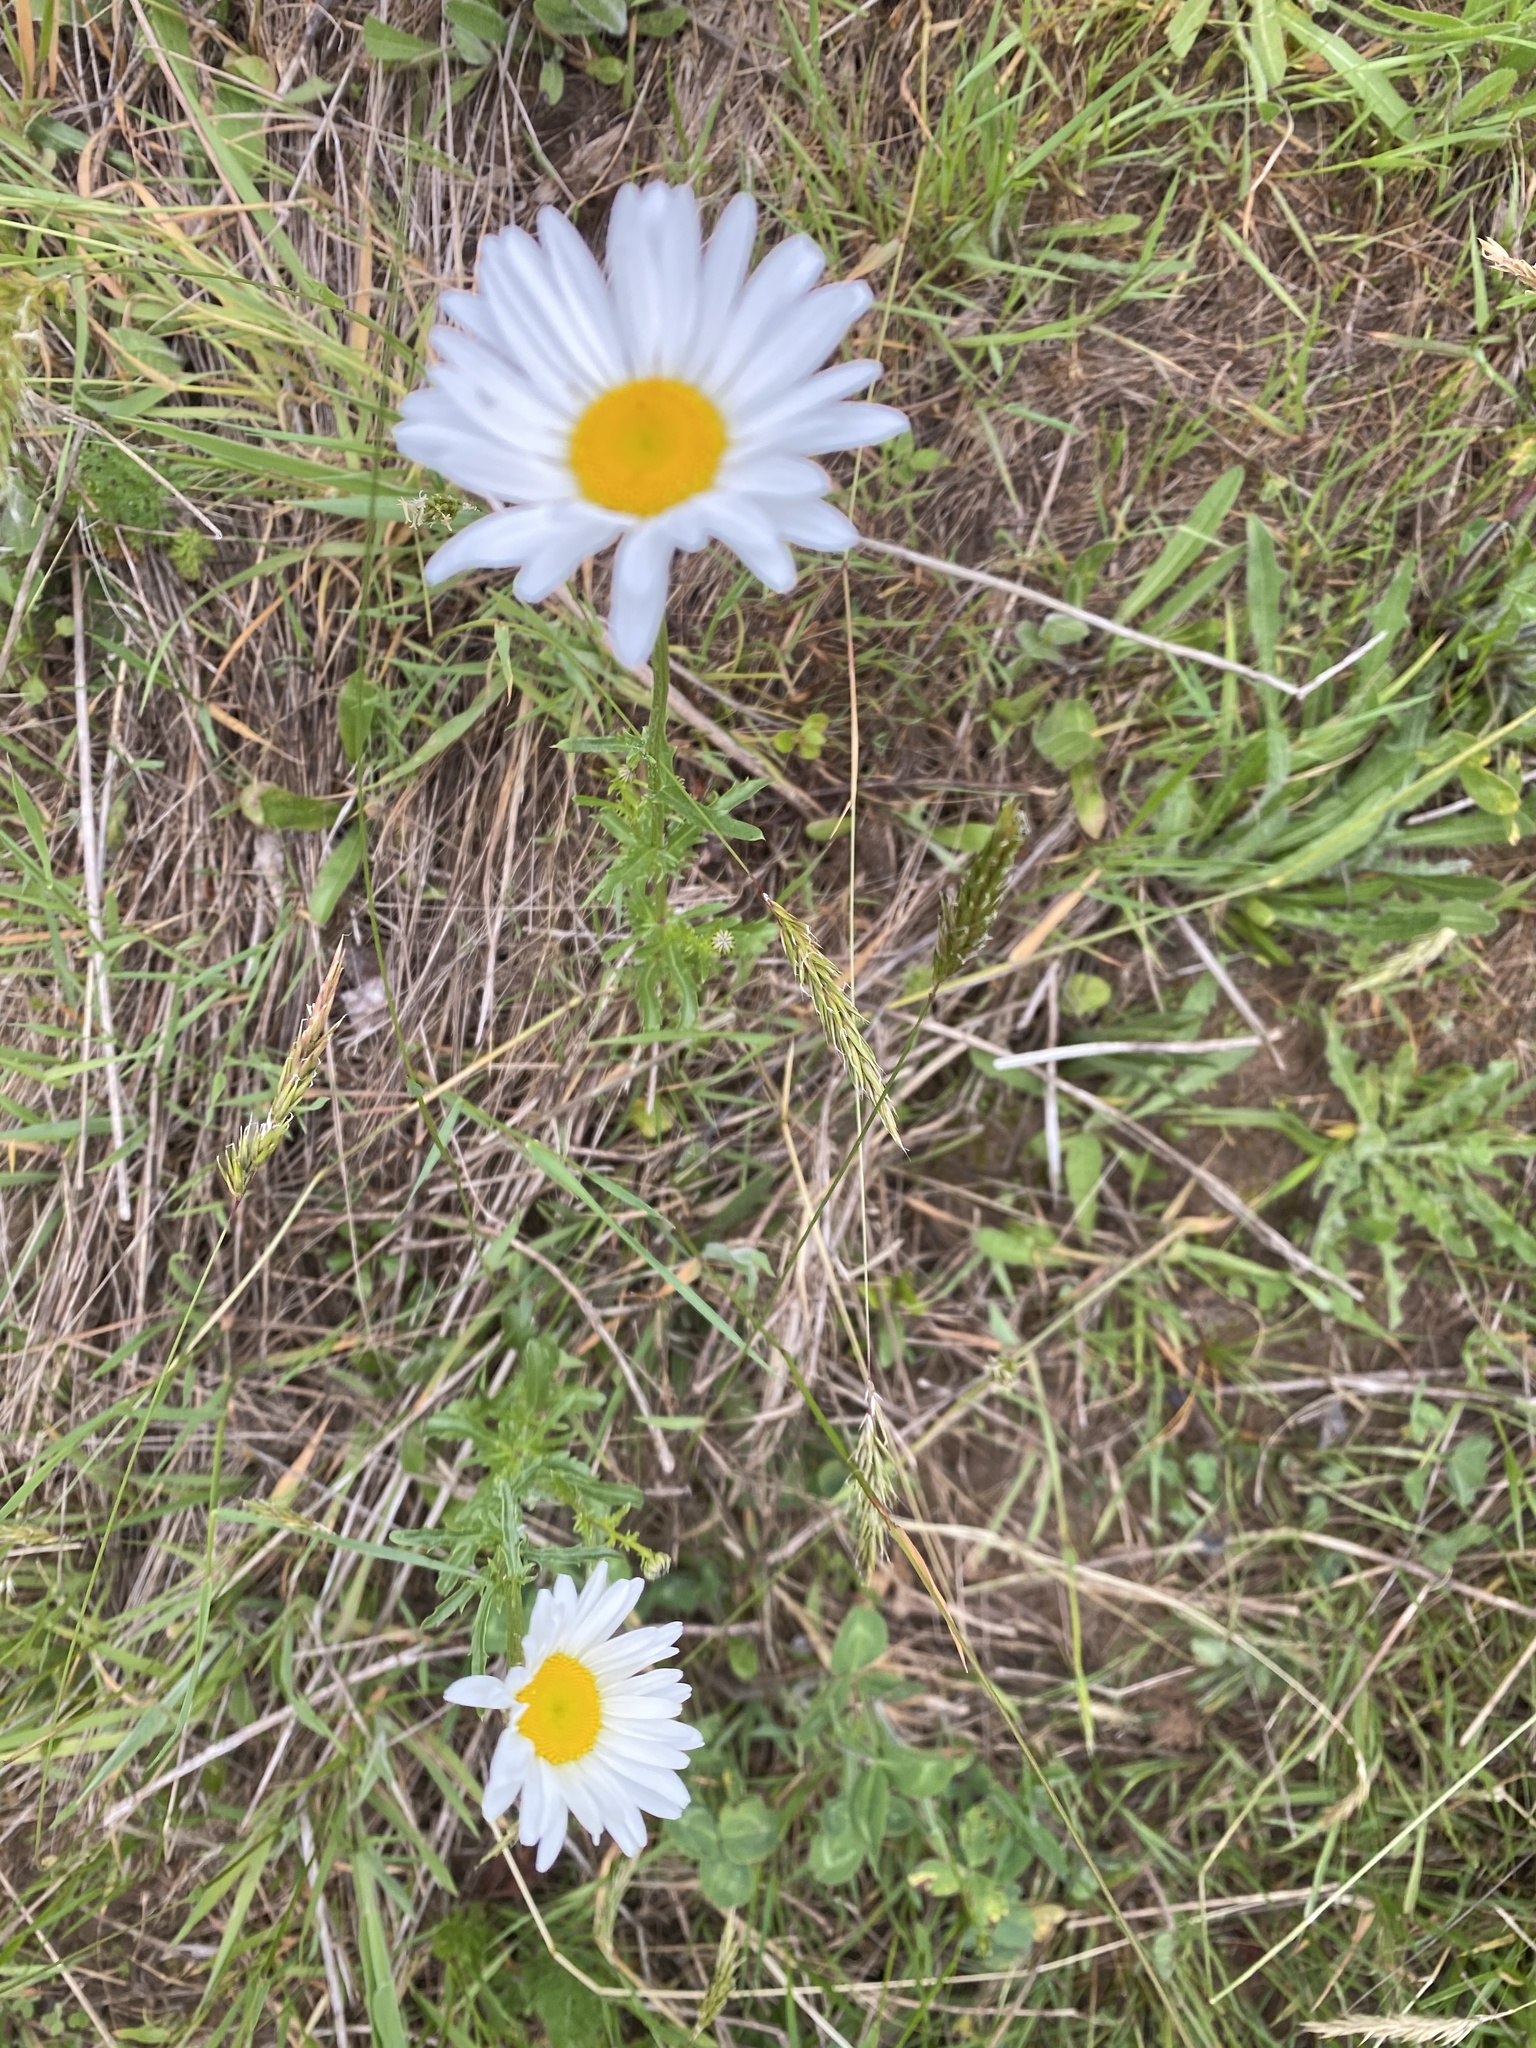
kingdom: Plantae
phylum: Tracheophyta
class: Magnoliopsida
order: Asterales
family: Asteraceae
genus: Leucanthemum
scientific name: Leucanthemum vulgare
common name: Oxeye daisy
